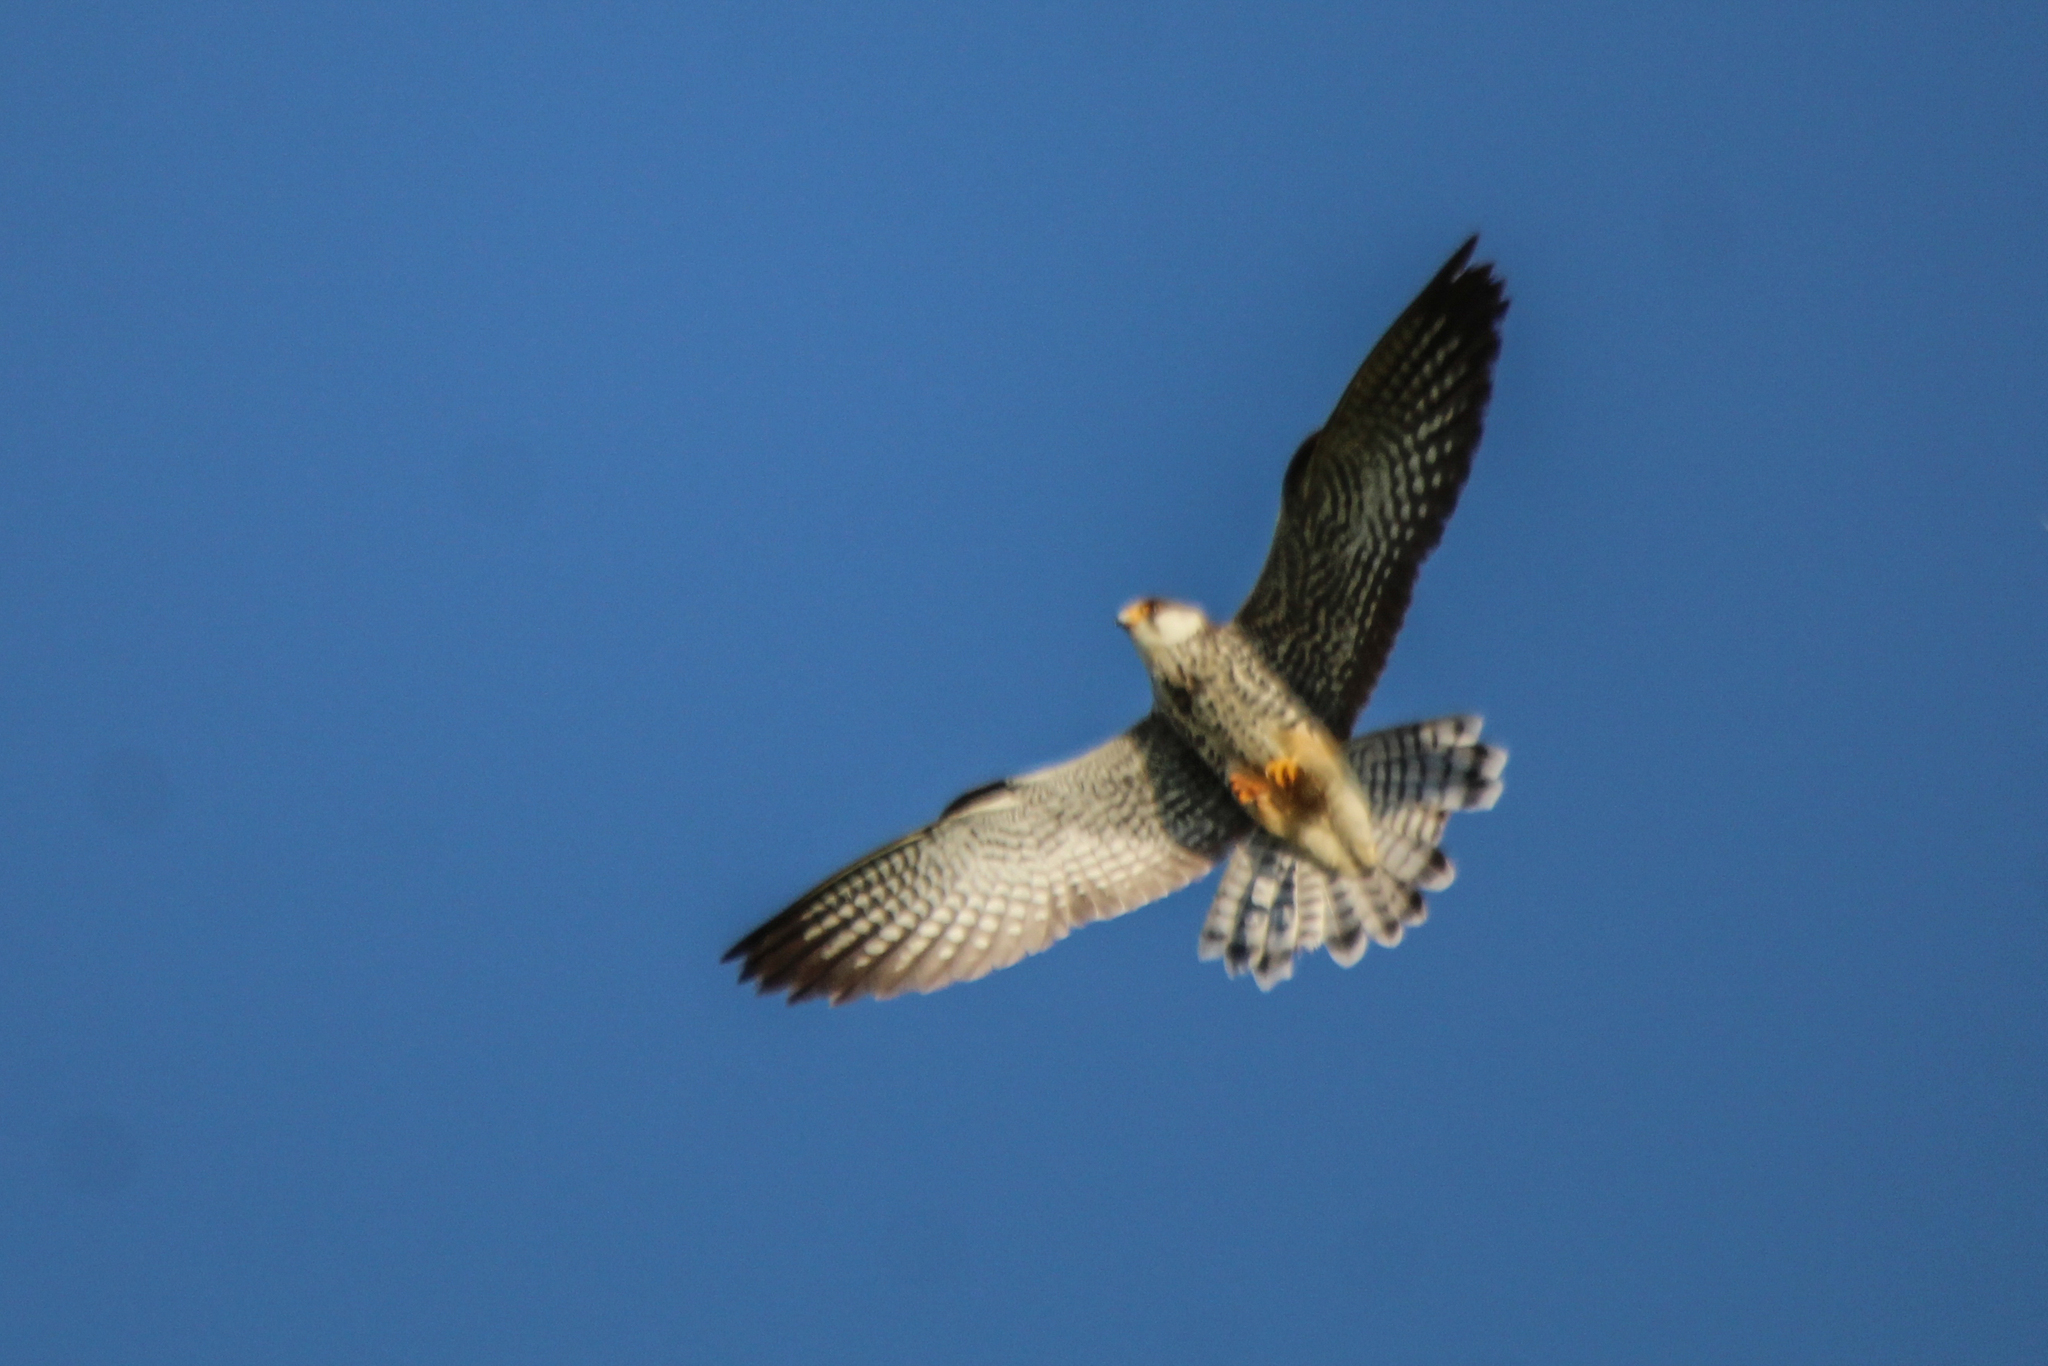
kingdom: Animalia
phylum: Chordata
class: Aves
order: Falconiformes
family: Falconidae
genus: Falco
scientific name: Falco amurensis
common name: Amur falcon
